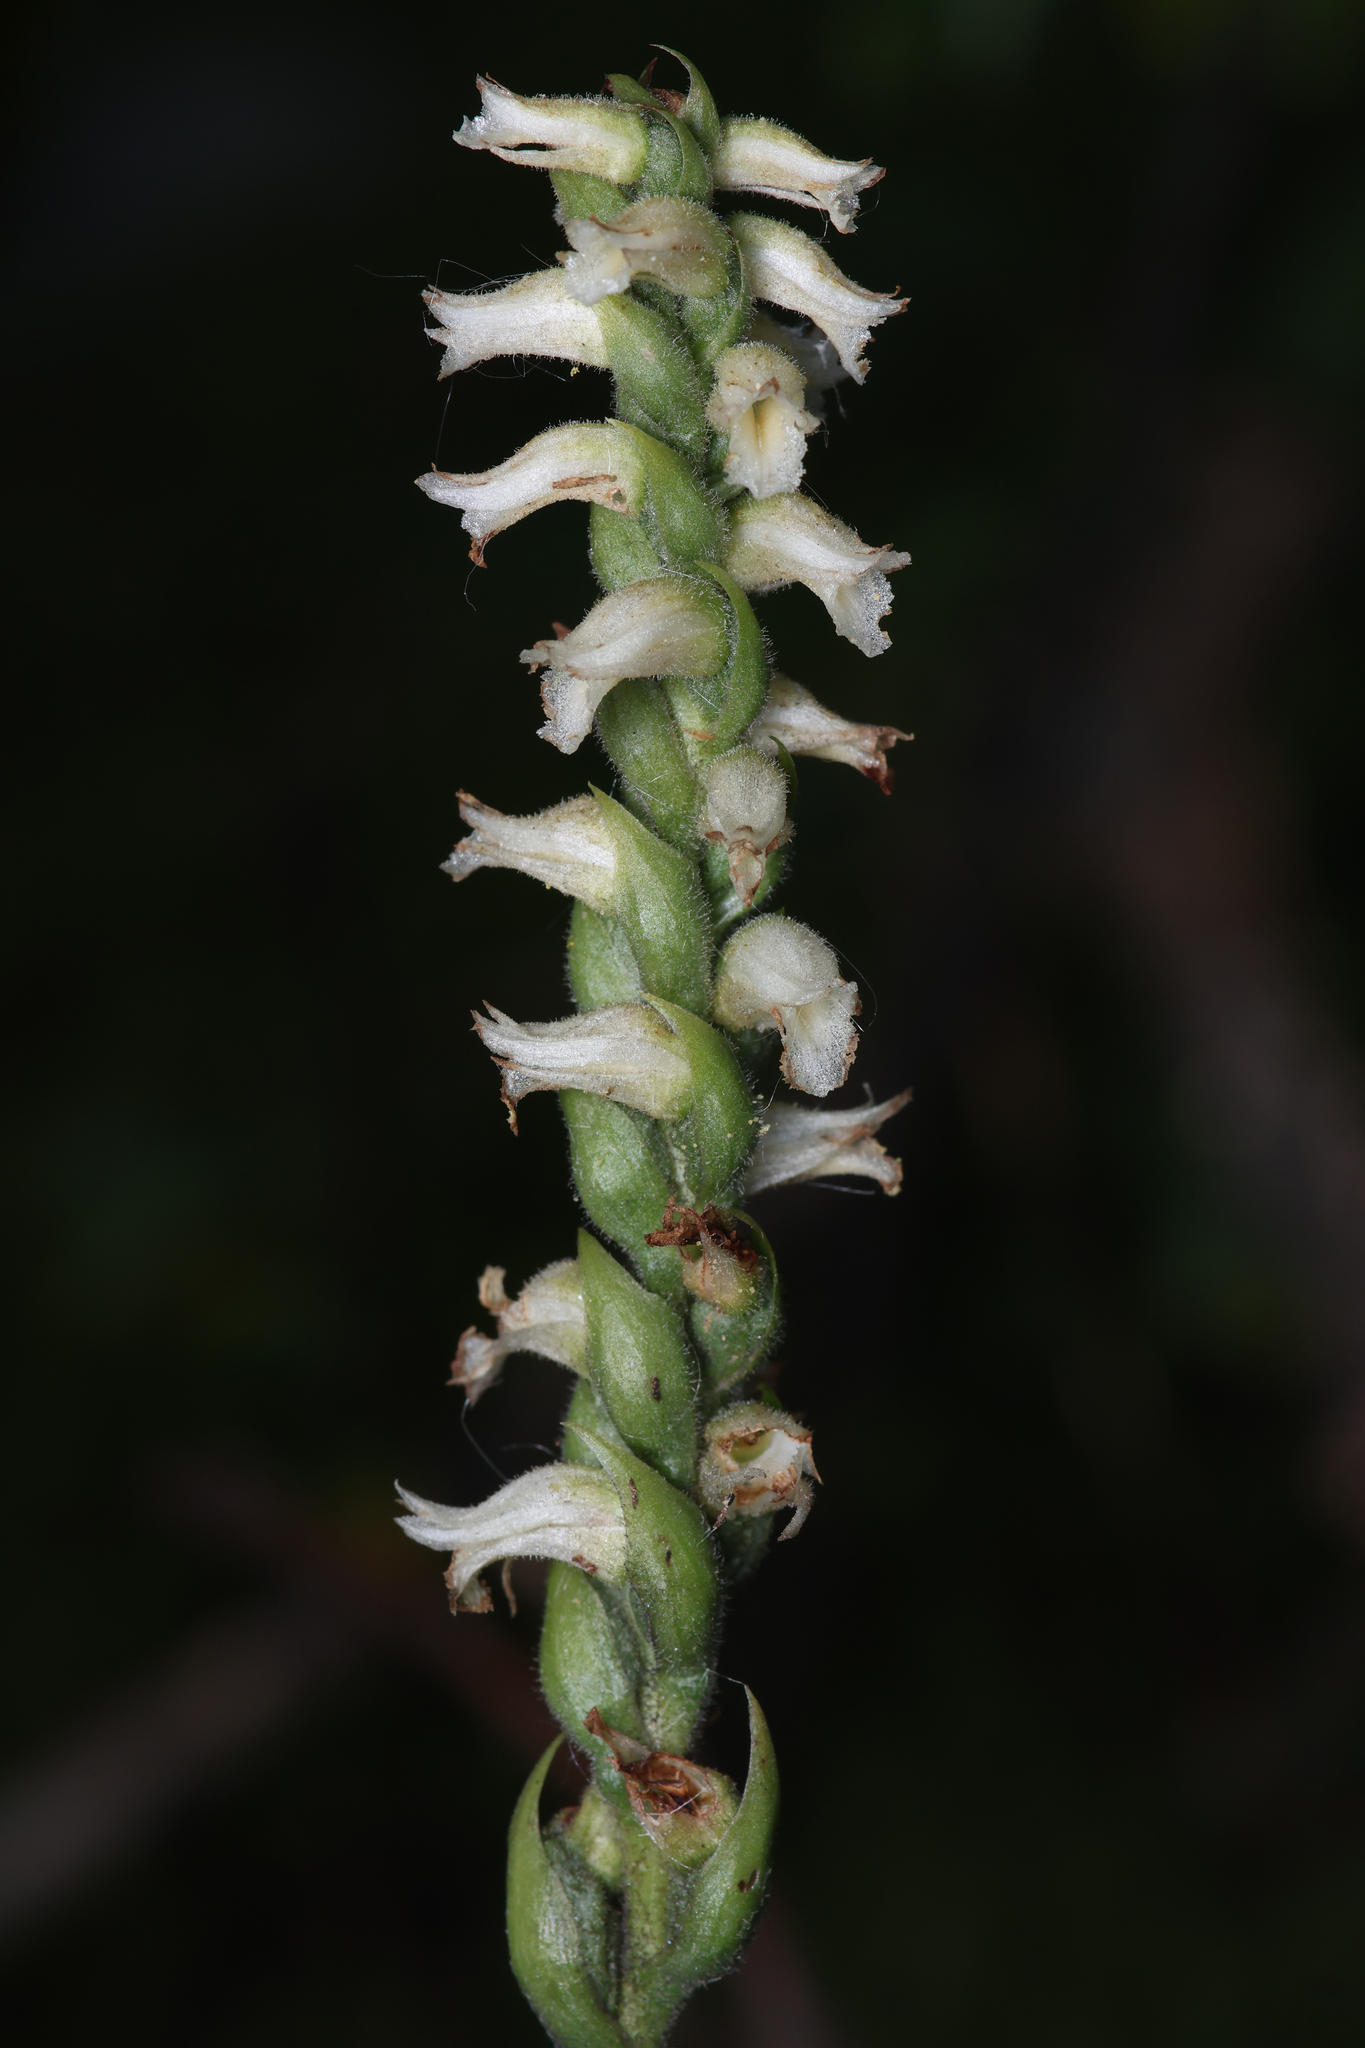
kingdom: Plantae
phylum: Tracheophyta
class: Liliopsida
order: Asparagales
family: Orchidaceae
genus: Spiranthes
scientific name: Spiranthes ochroleuca
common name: Yellow ladies'-tresses
